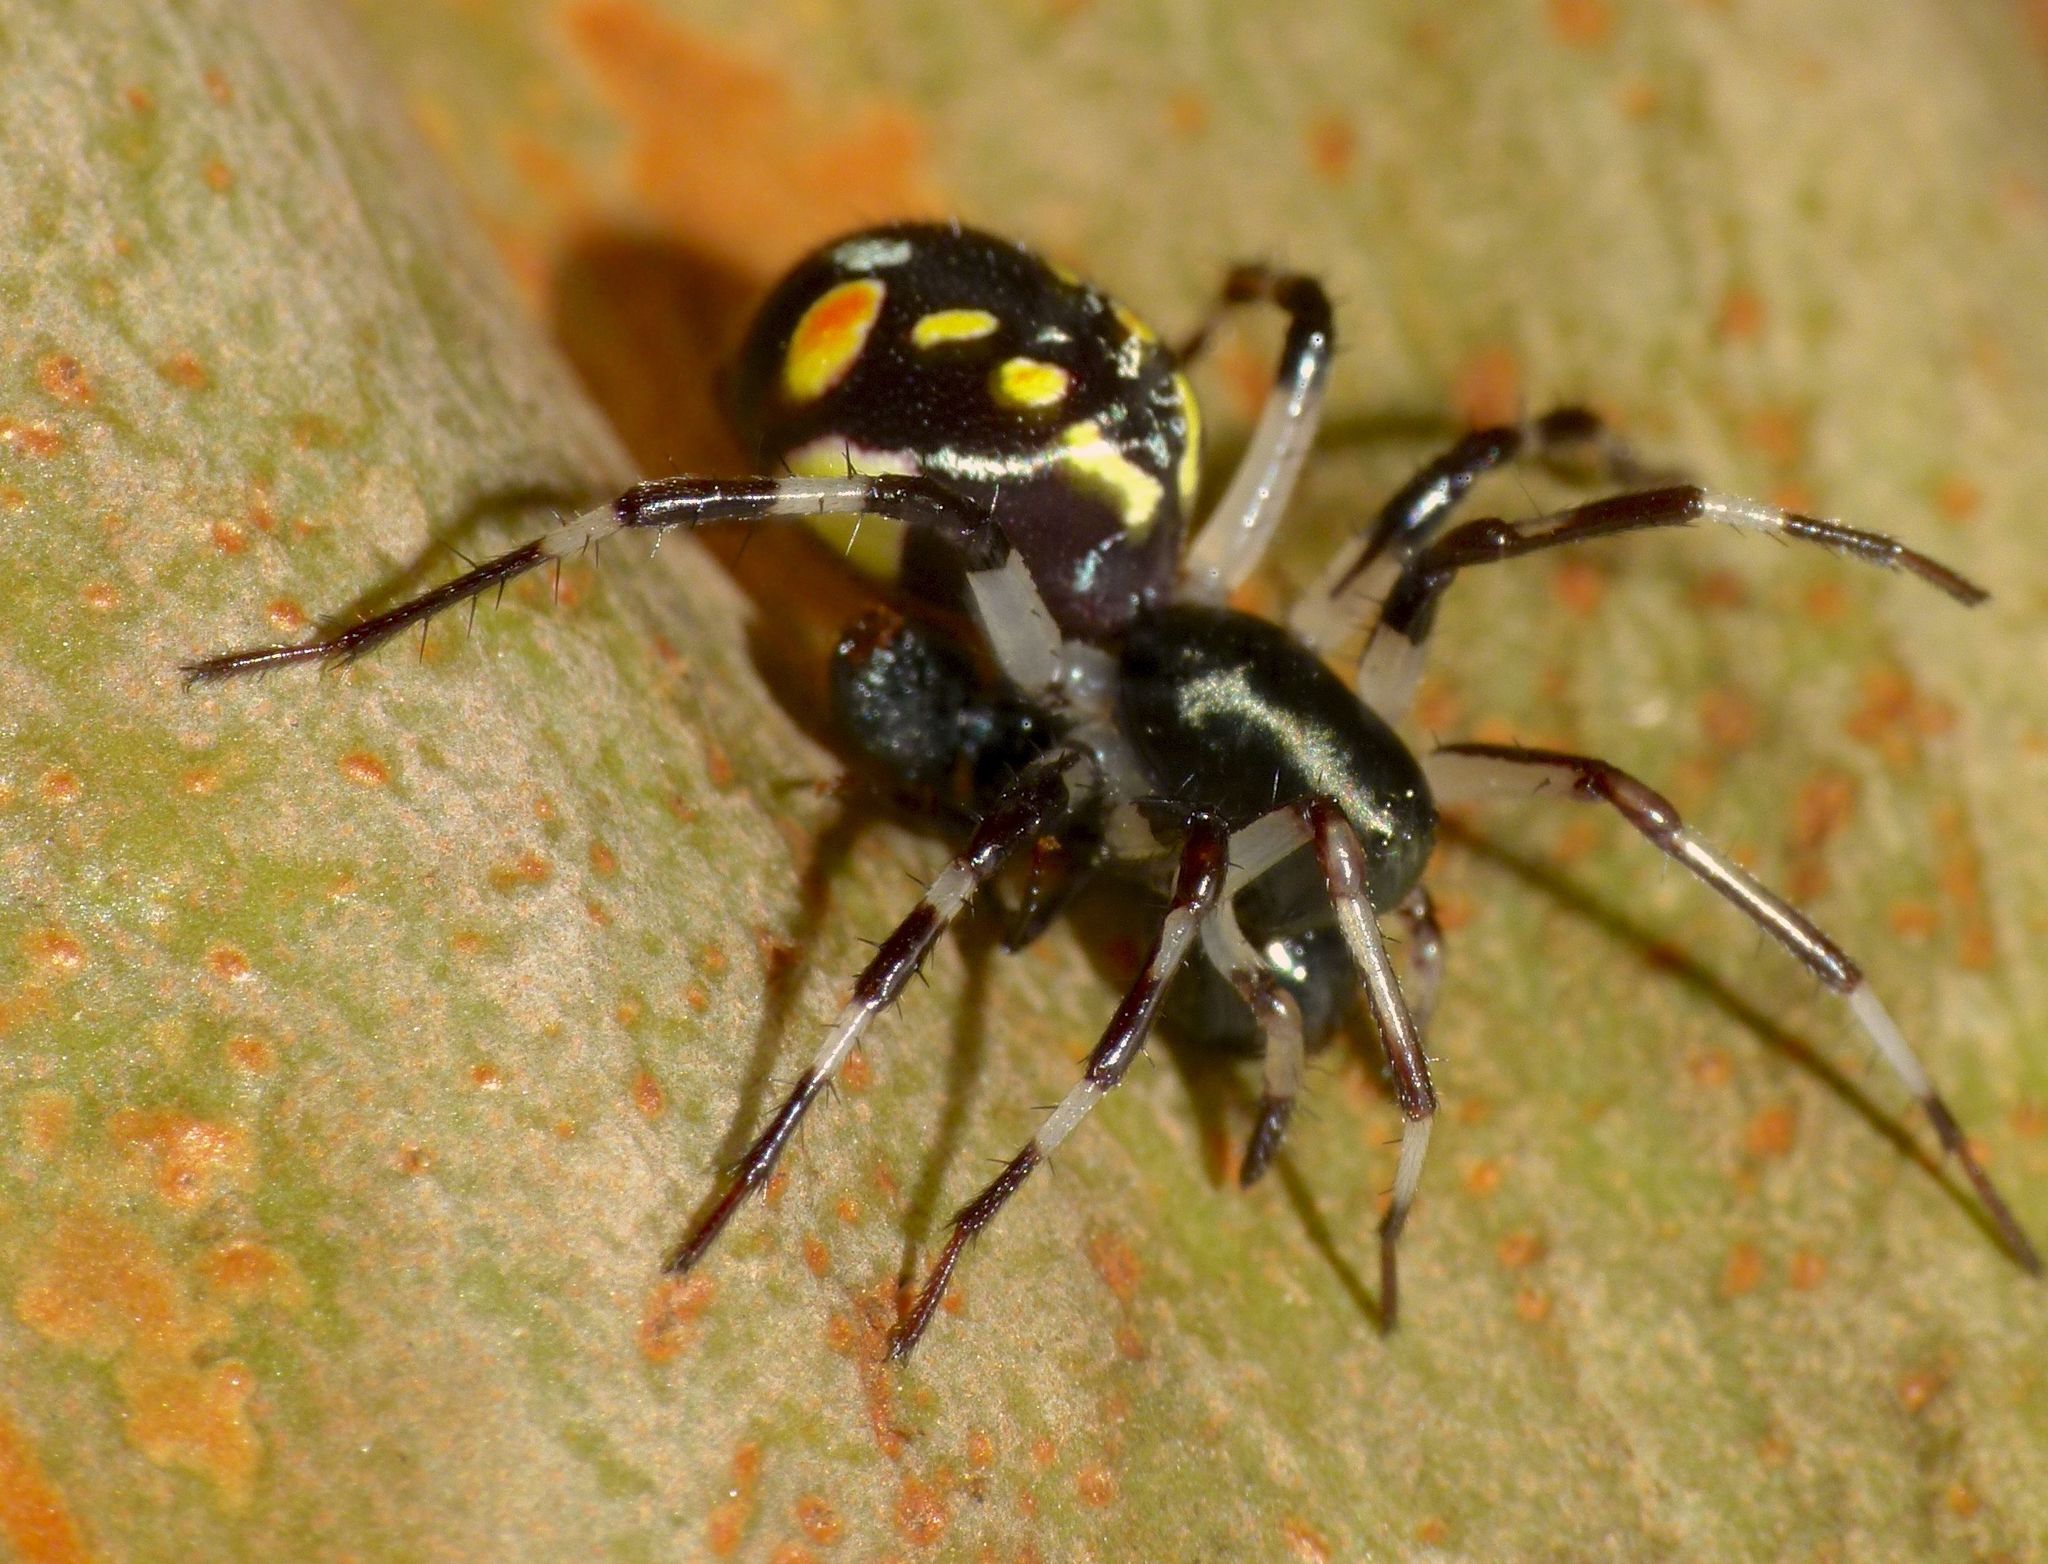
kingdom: Animalia
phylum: Arthropoda
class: Arachnida
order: Araneae
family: Zodariidae
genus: Subasteron
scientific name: Subasteron daviesae
